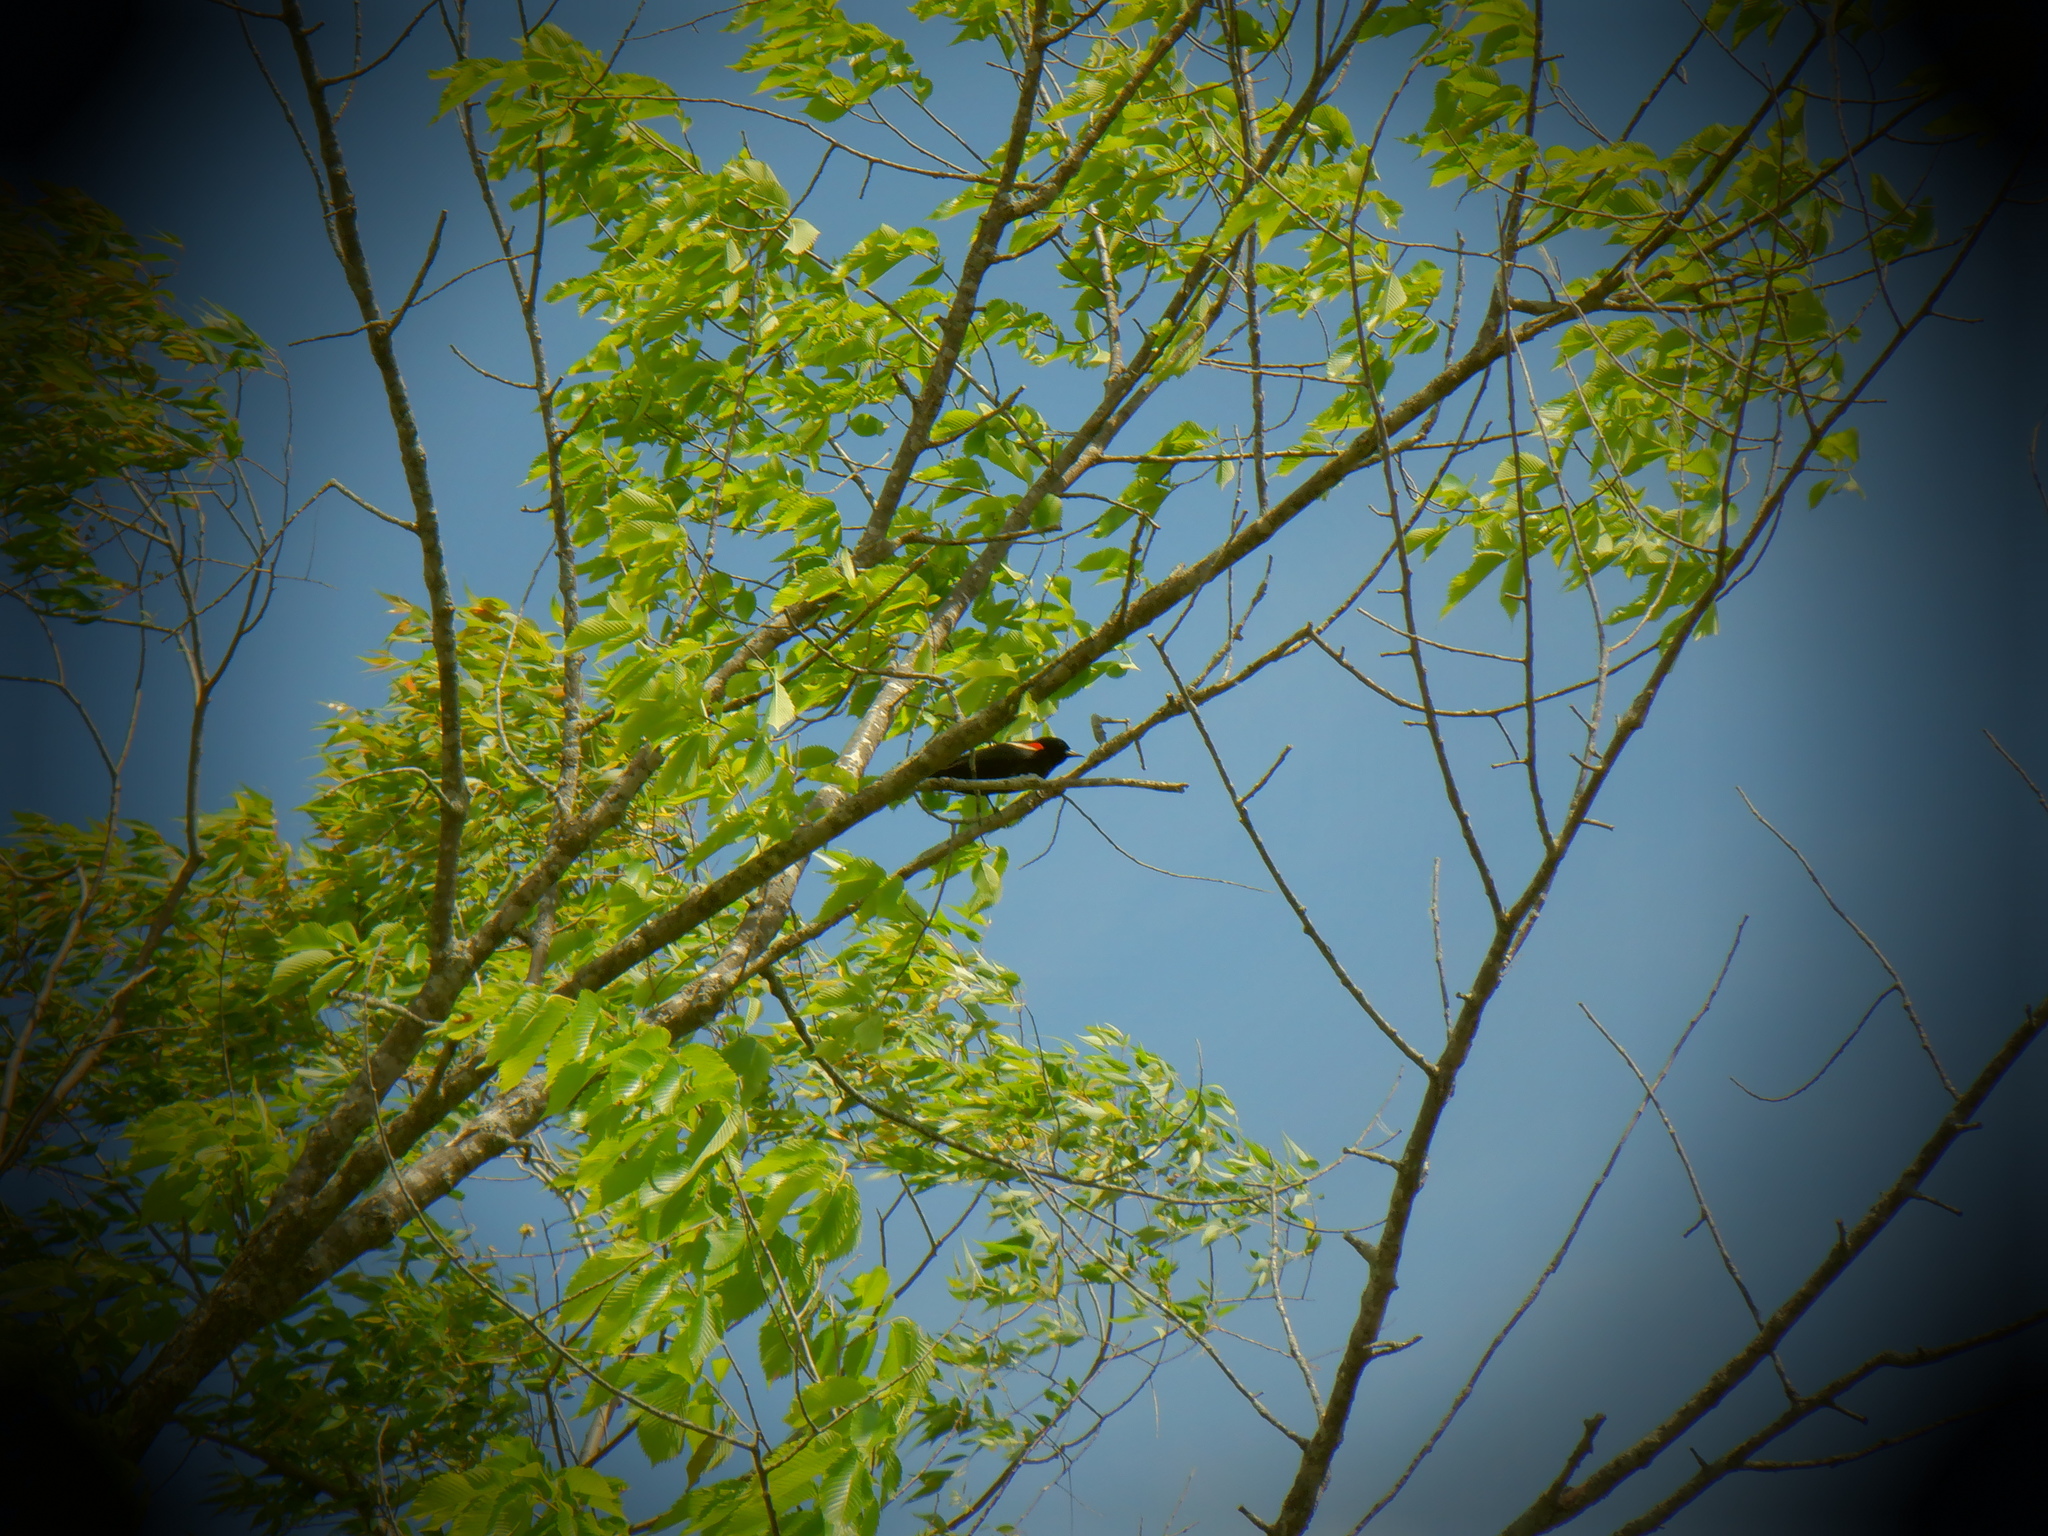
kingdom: Animalia
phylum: Chordata
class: Aves
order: Passeriformes
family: Icteridae
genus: Agelaius
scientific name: Agelaius phoeniceus
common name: Red-winged blackbird
